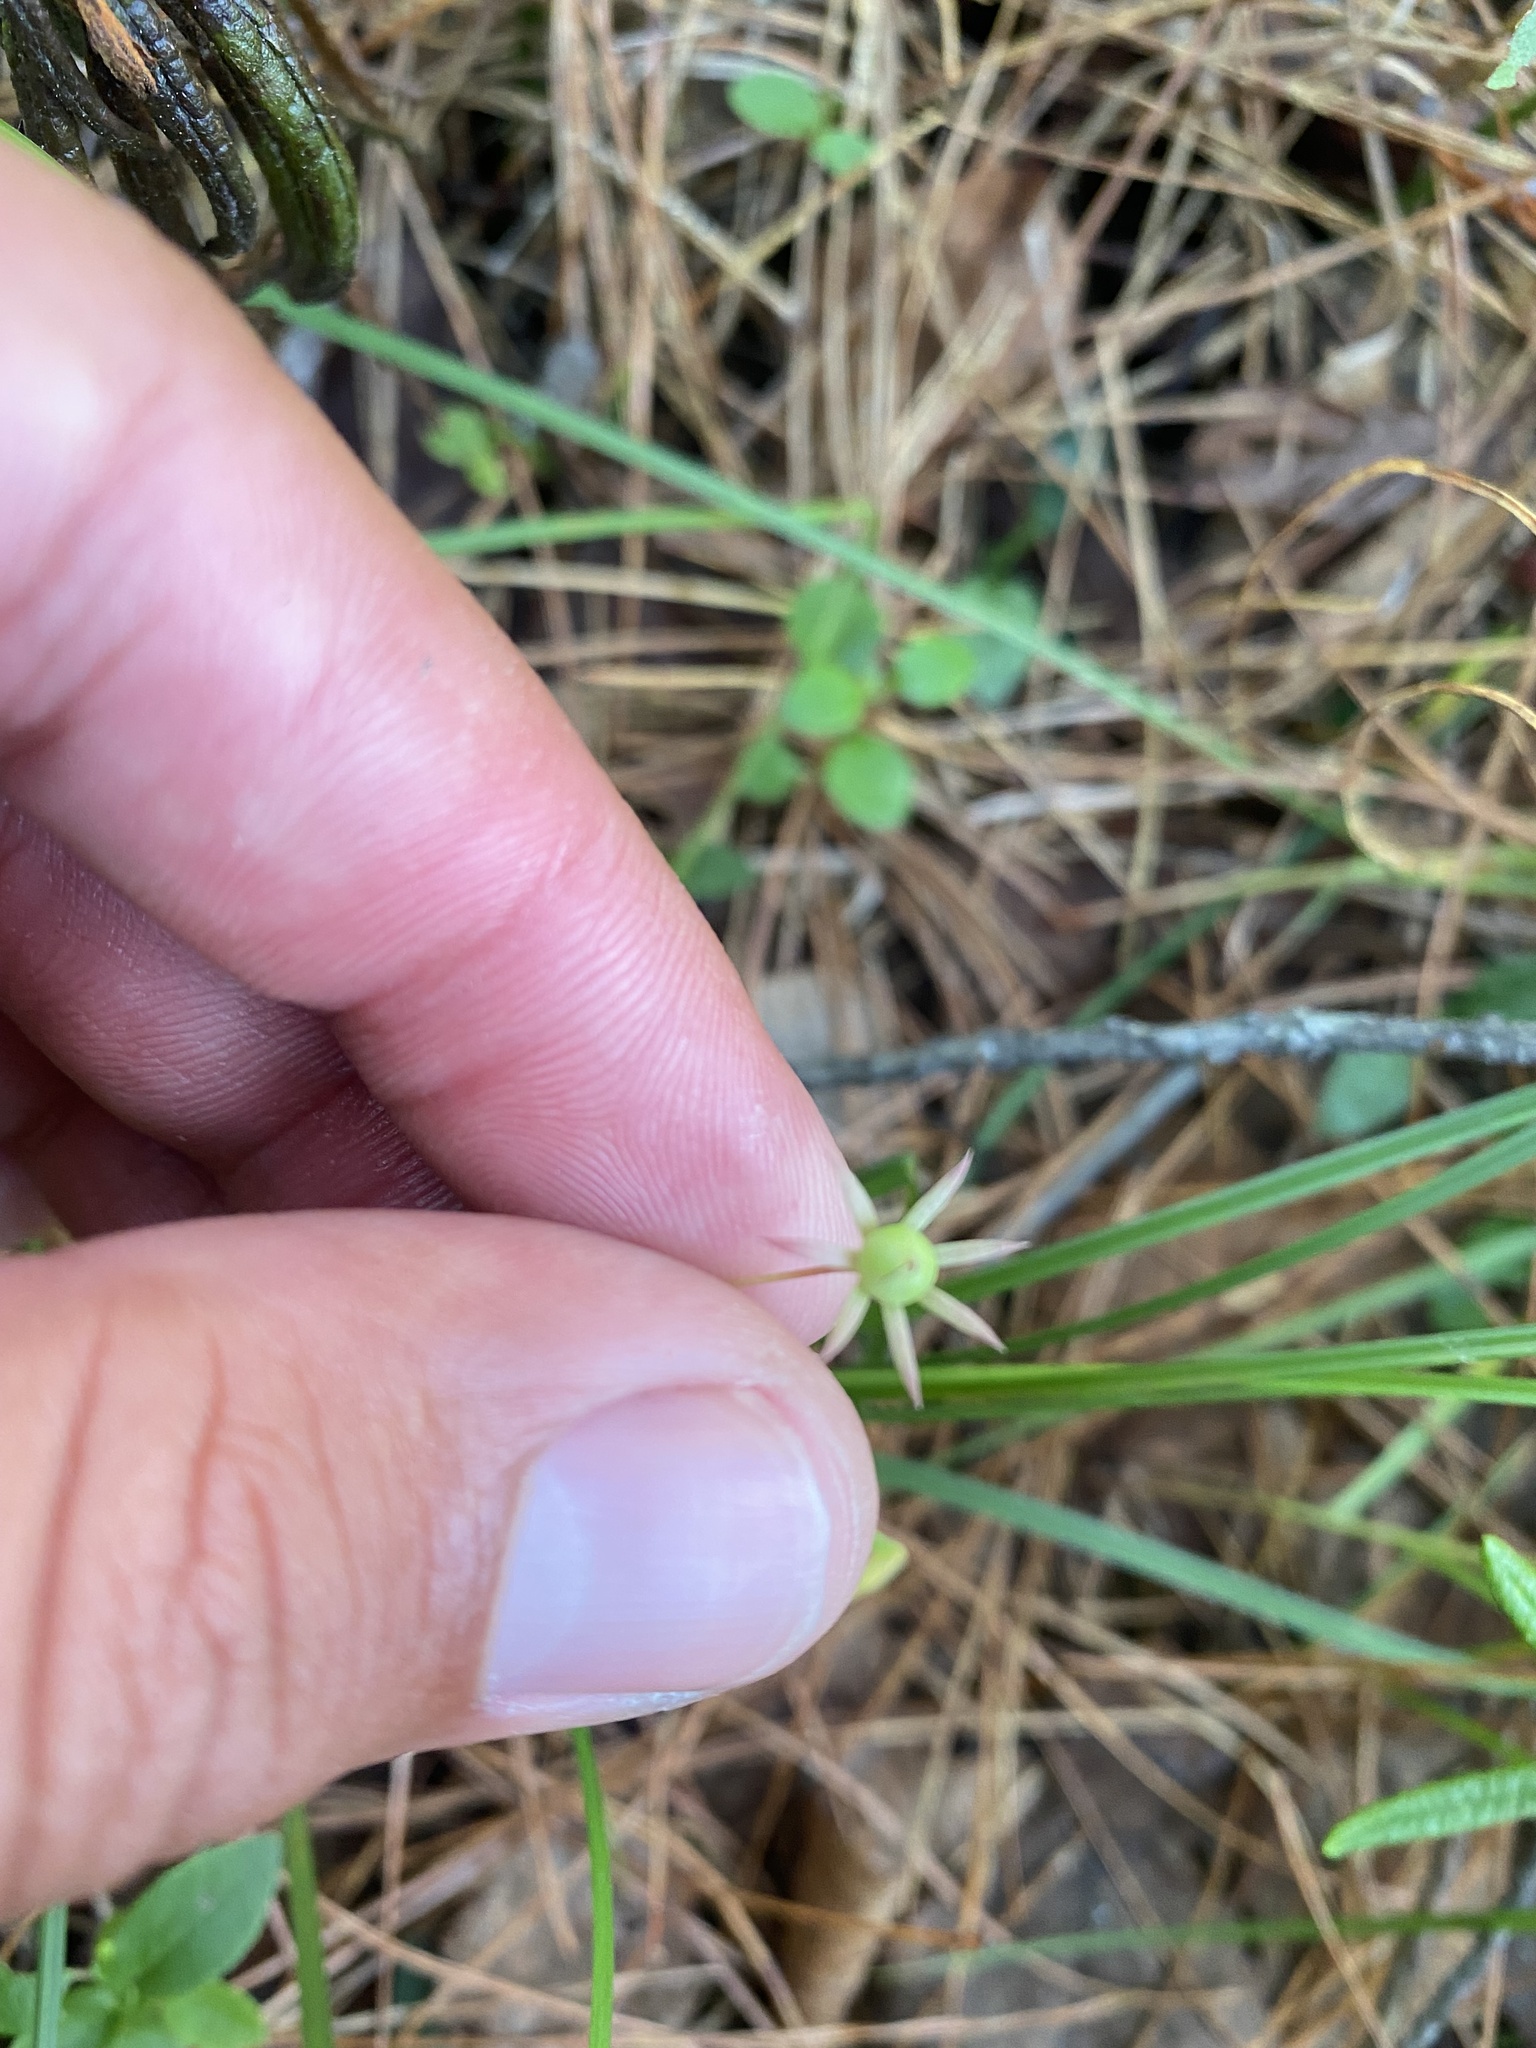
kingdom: Plantae
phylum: Tracheophyta
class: Magnoliopsida
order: Ericales
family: Primulaceae
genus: Lysimachia
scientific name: Lysimachia europaea
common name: Arctic starflower
